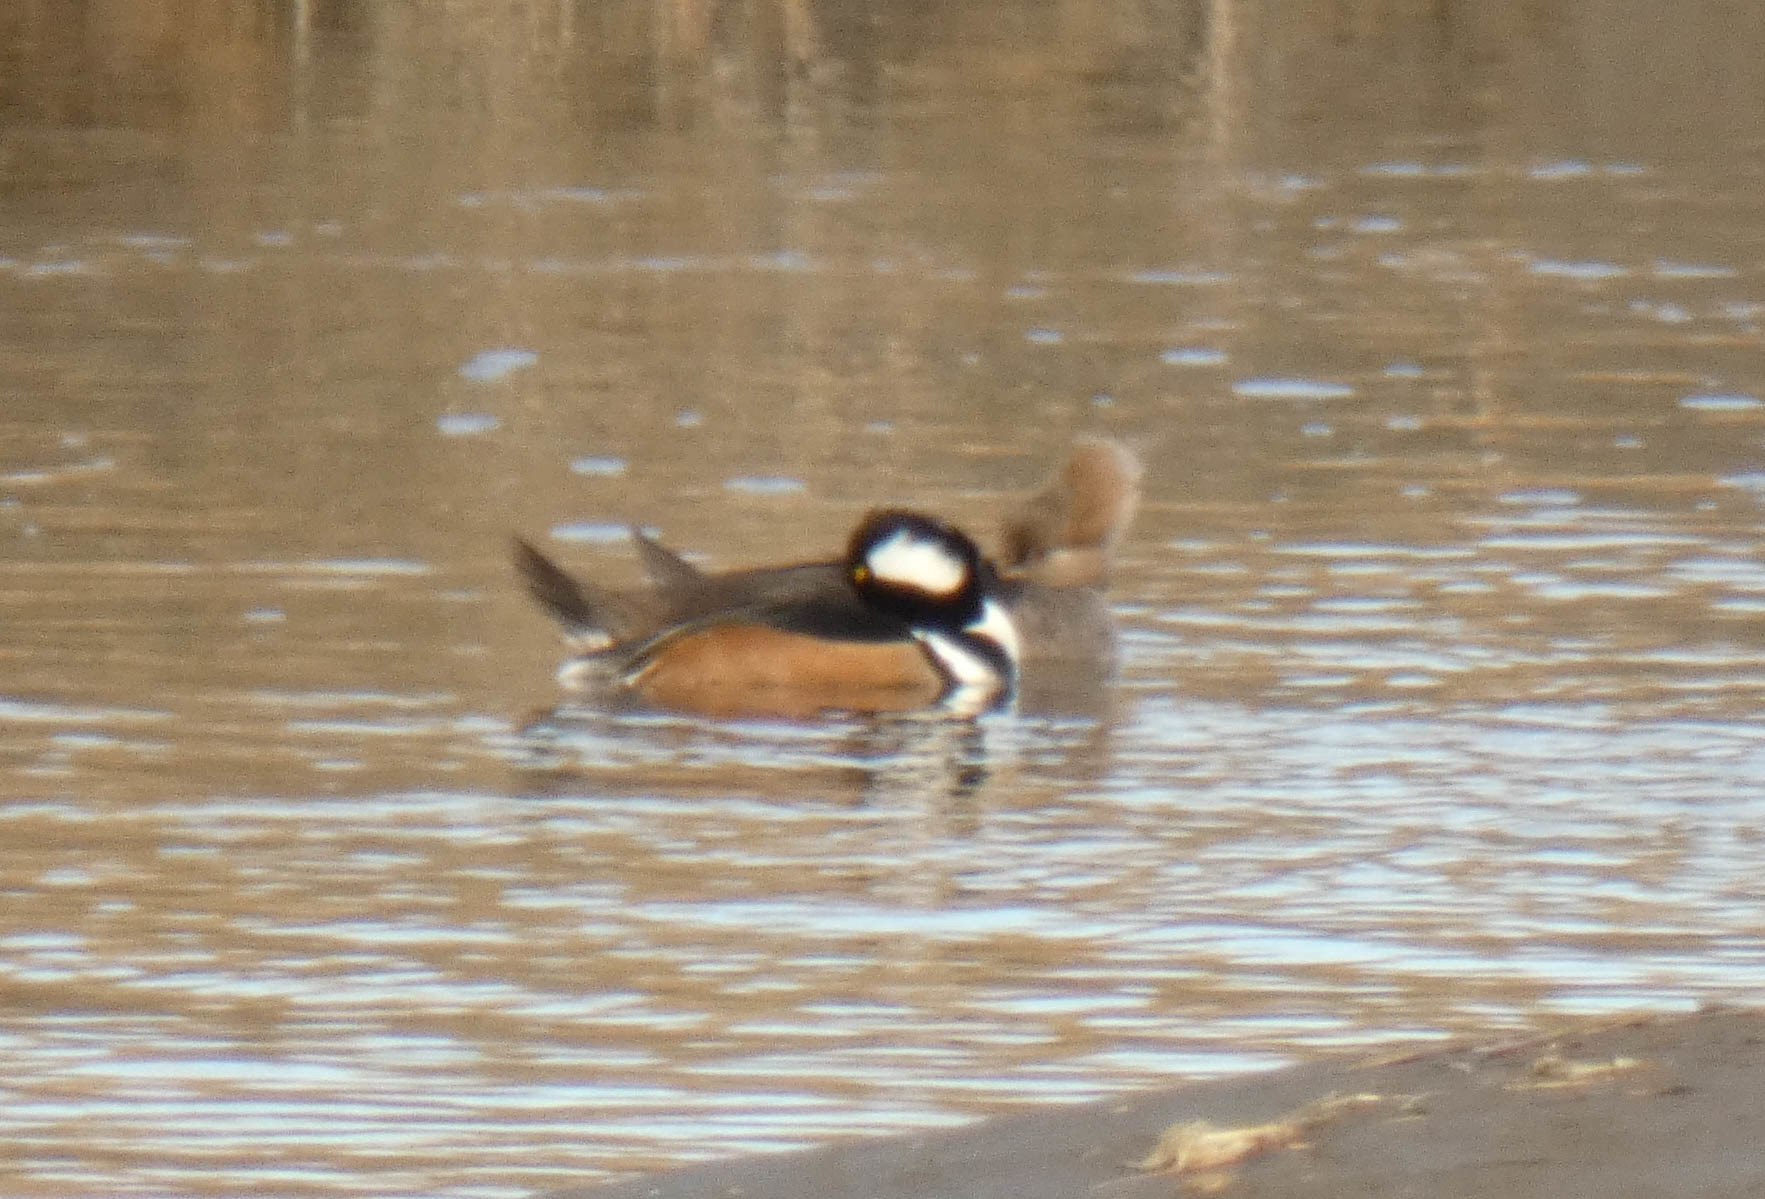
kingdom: Animalia
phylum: Chordata
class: Aves
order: Anseriformes
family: Anatidae
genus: Lophodytes
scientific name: Lophodytes cucullatus
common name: Hooded merganser
